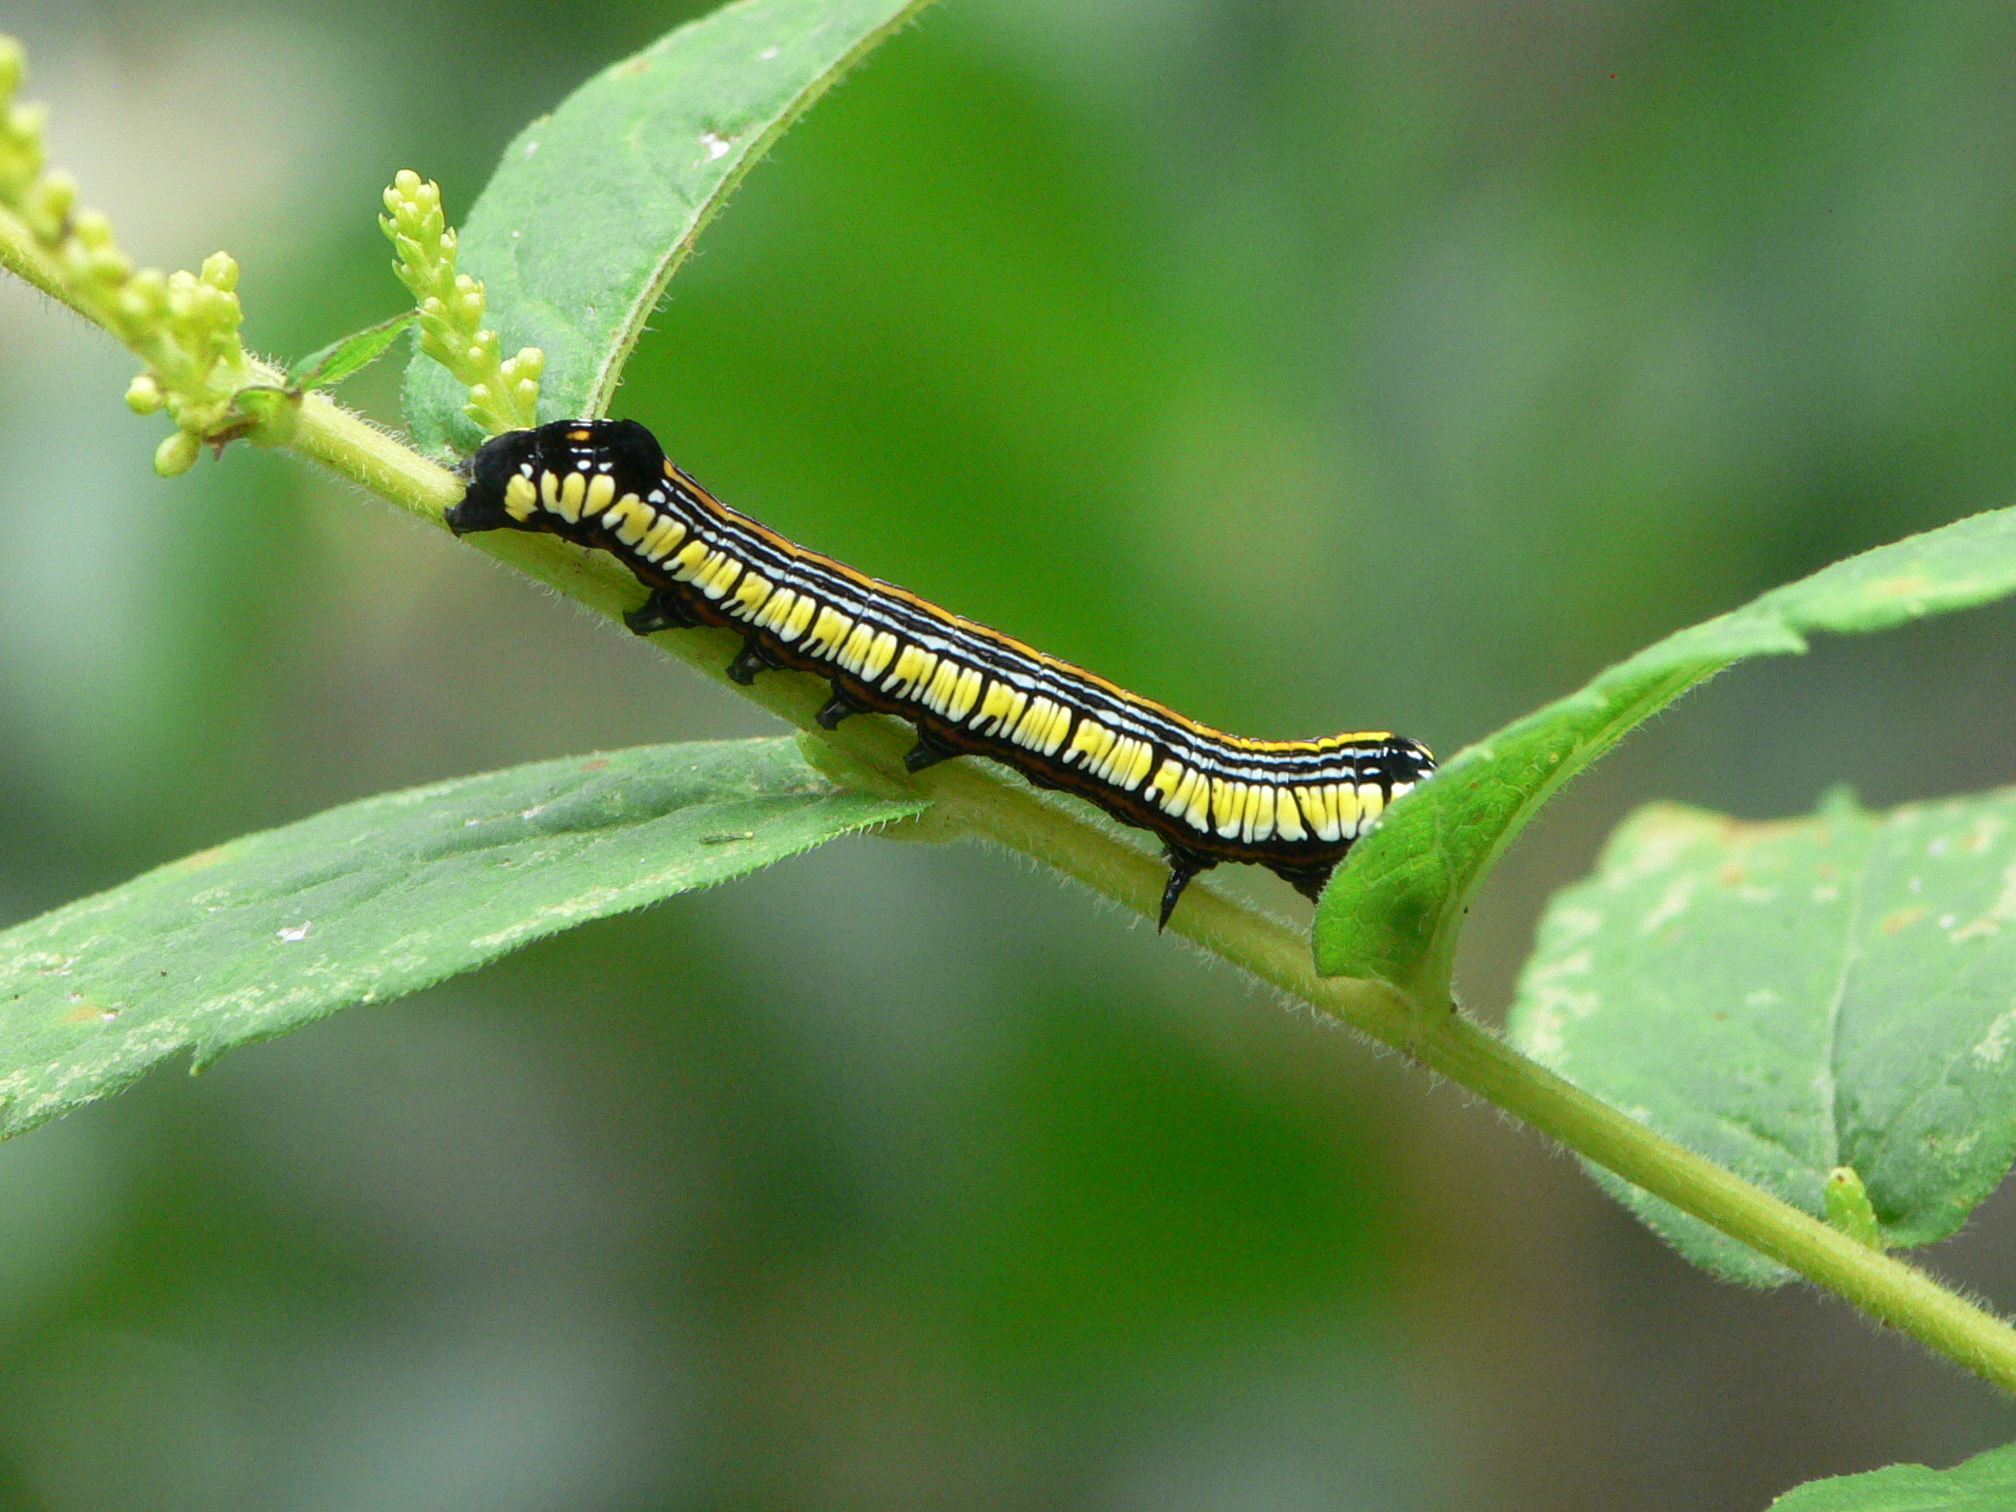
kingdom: Animalia
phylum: Arthropoda
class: Insecta
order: Lepidoptera
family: Noctuidae
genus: Cucullia
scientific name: Cucullia convexipennis
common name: Brown-hooded owlet
